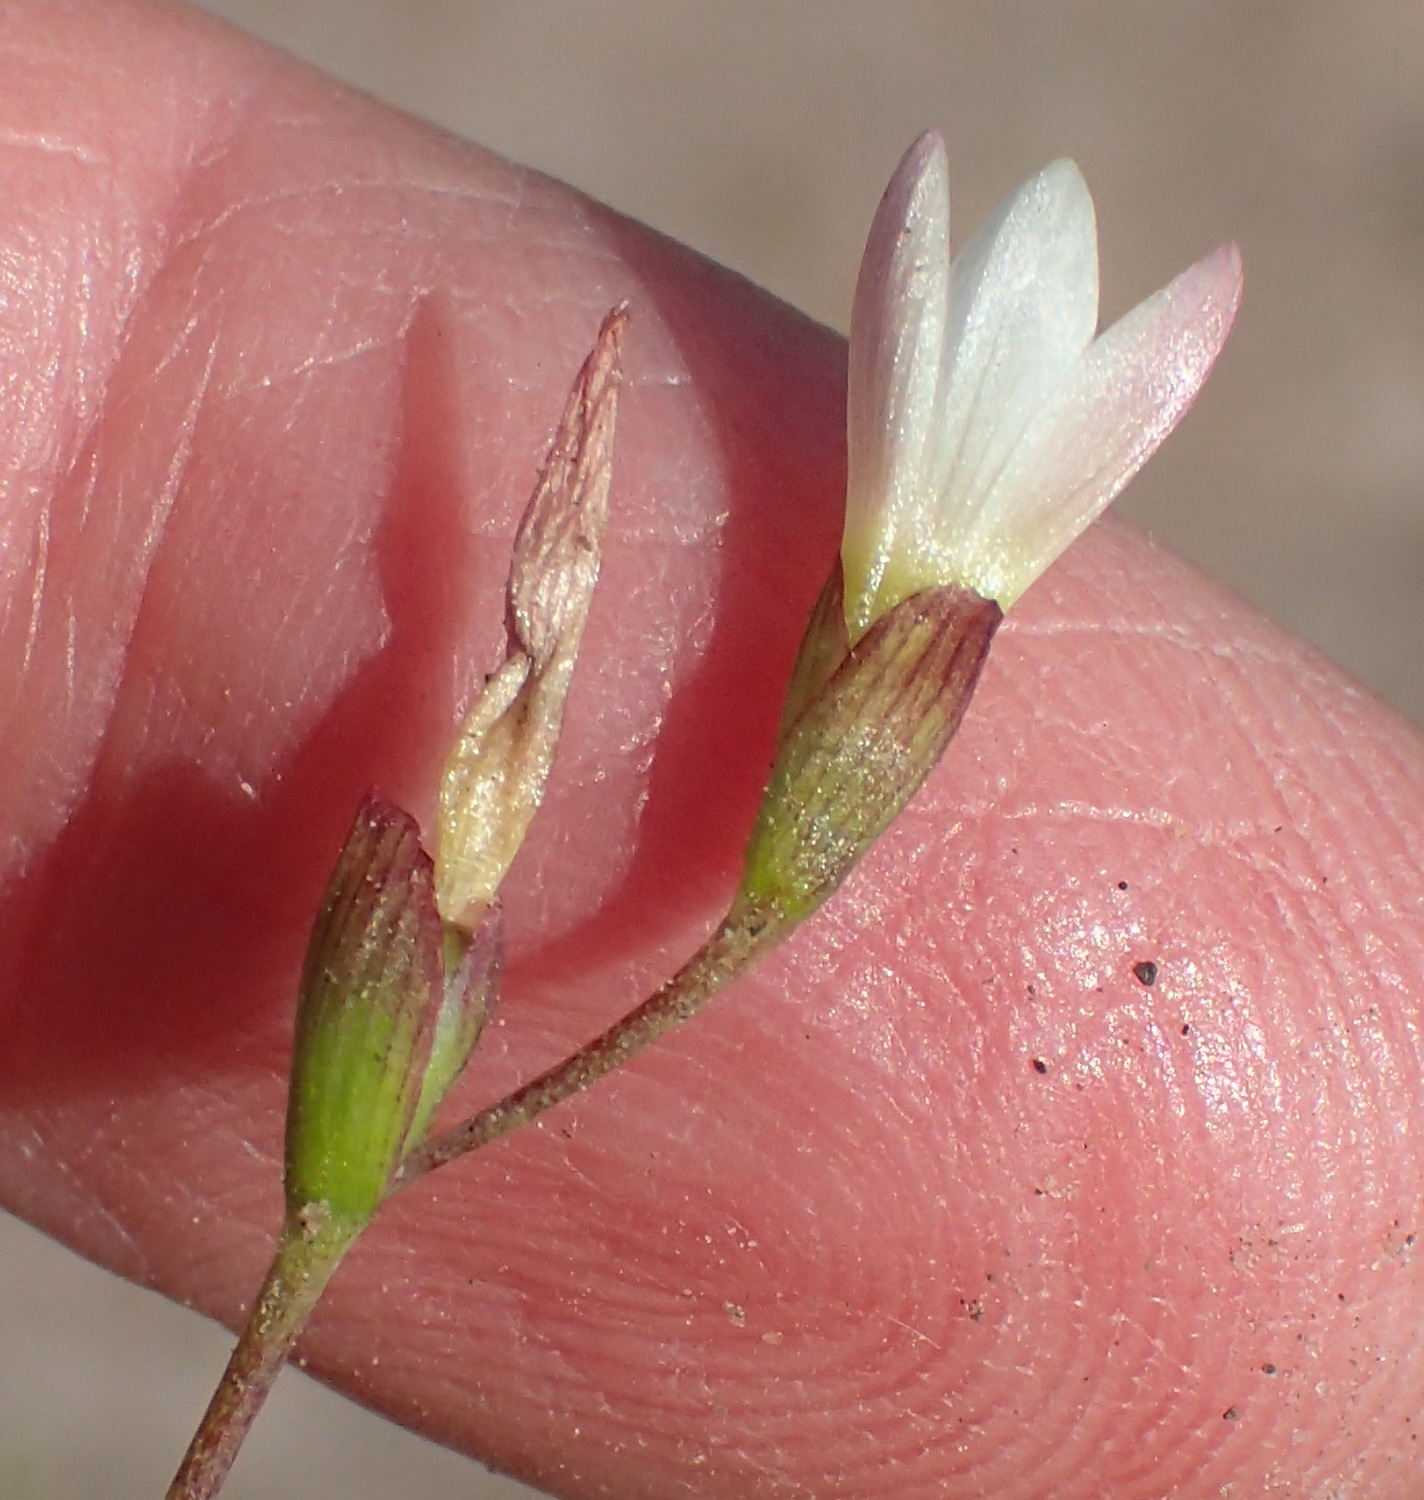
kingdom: Plantae
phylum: Tracheophyta
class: Liliopsida
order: Asparagales
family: Iridaceae
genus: Geissorhiza
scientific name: Geissorhiza inconspicua
